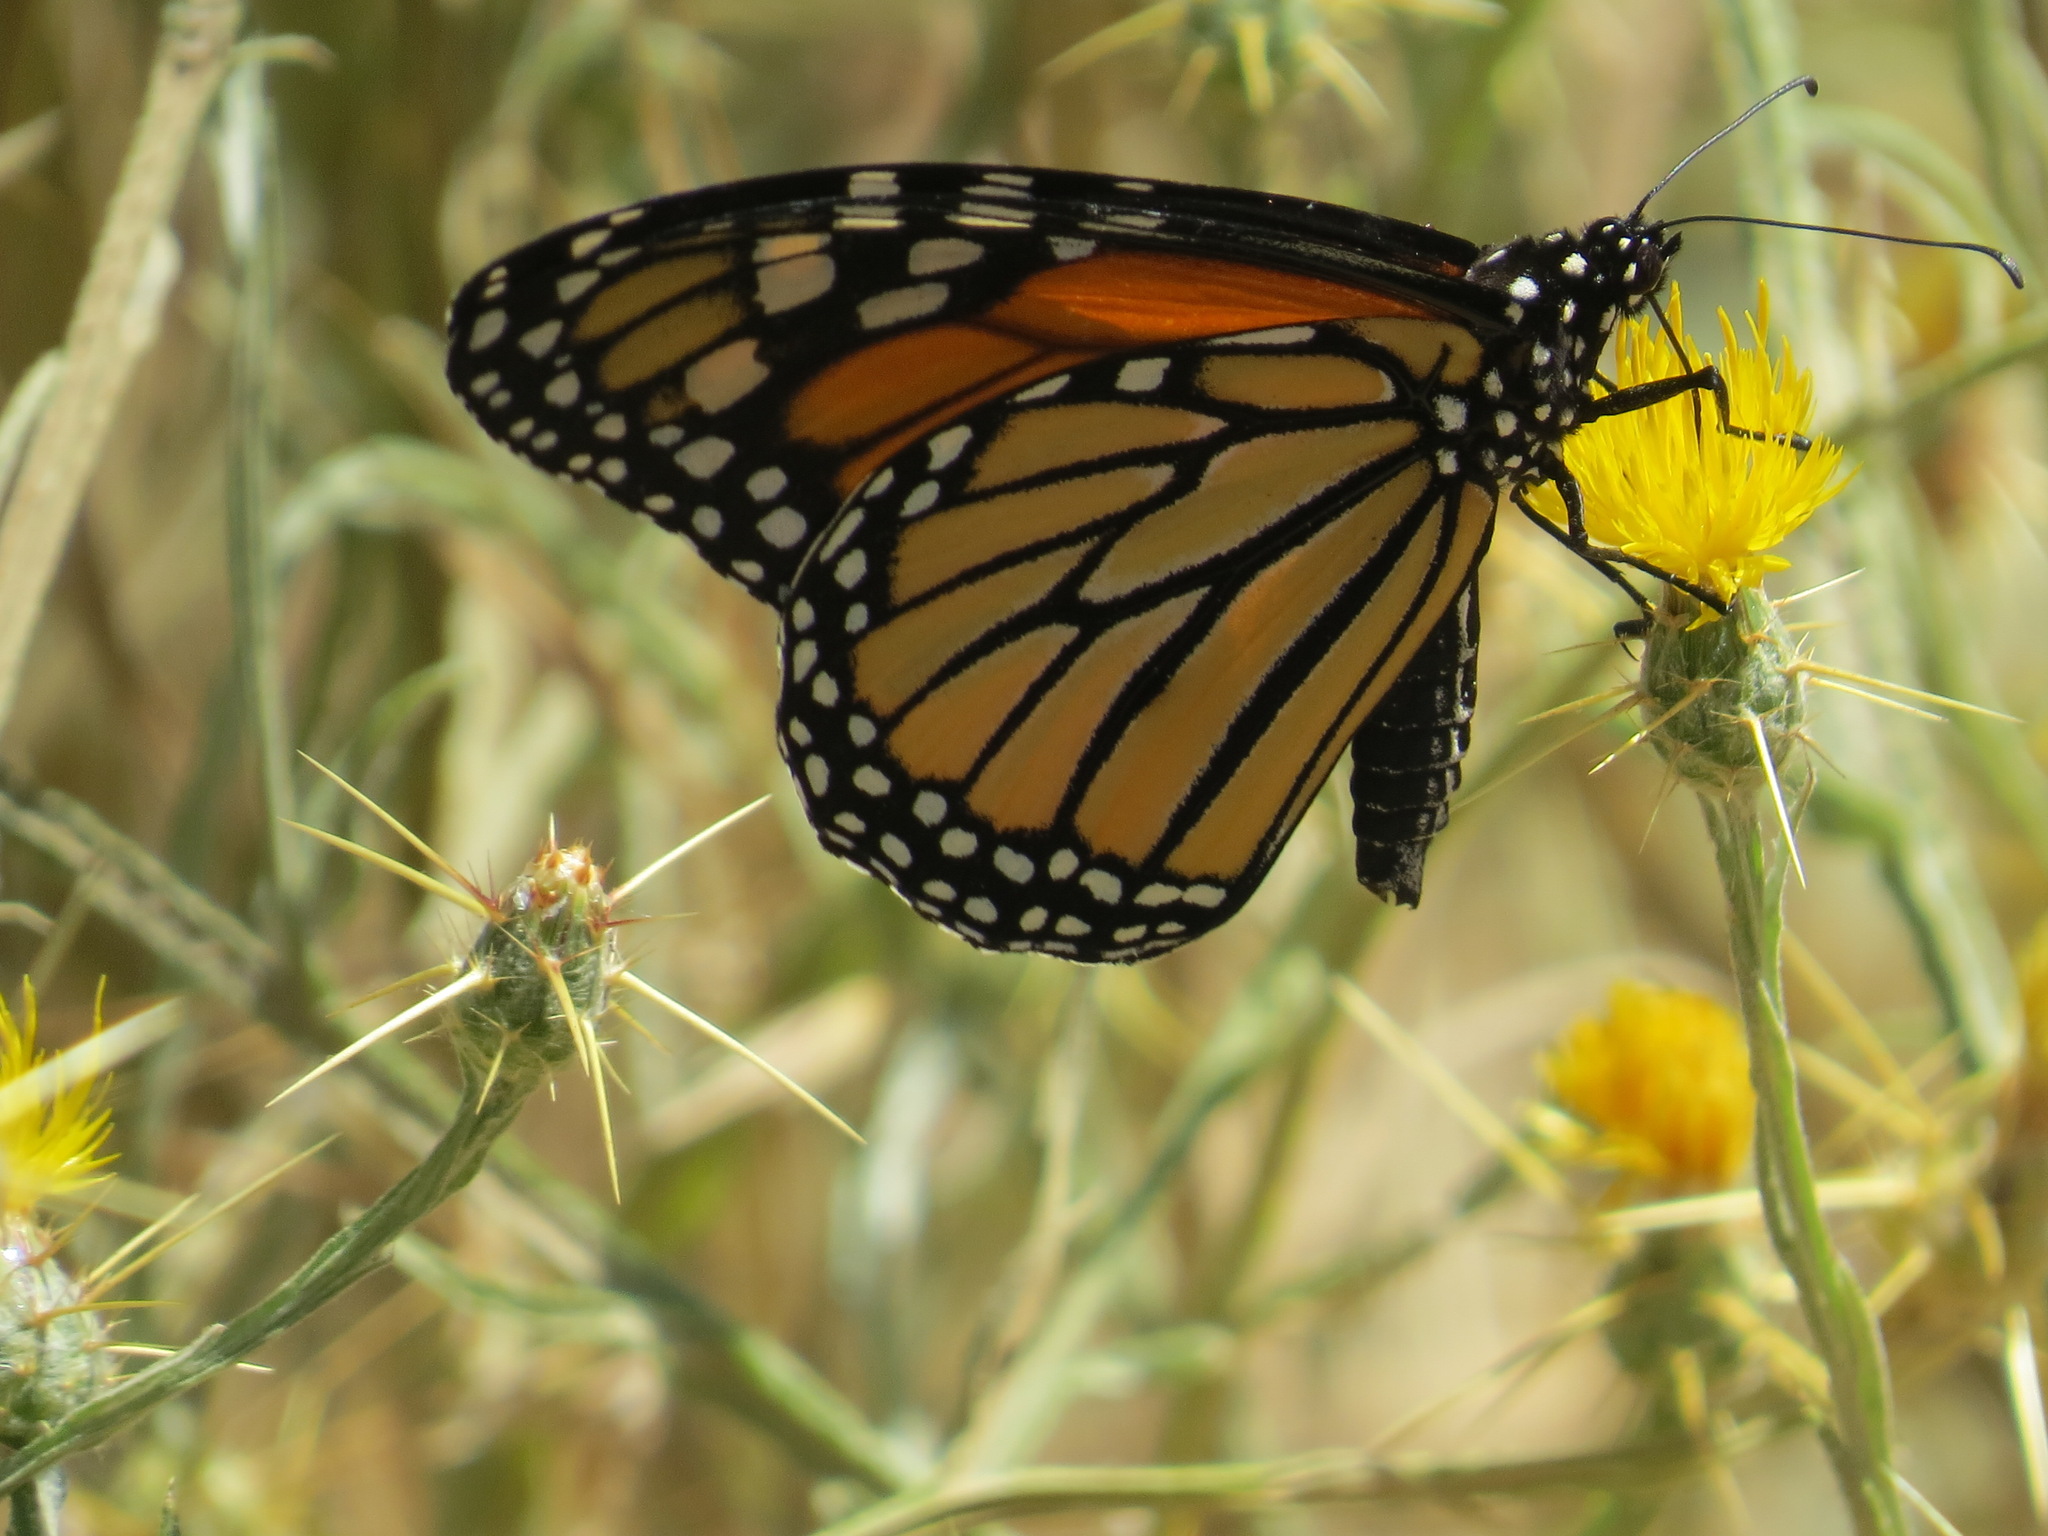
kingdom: Animalia
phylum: Arthropoda
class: Insecta
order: Lepidoptera
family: Nymphalidae
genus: Danaus
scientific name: Danaus plexippus
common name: Monarch
